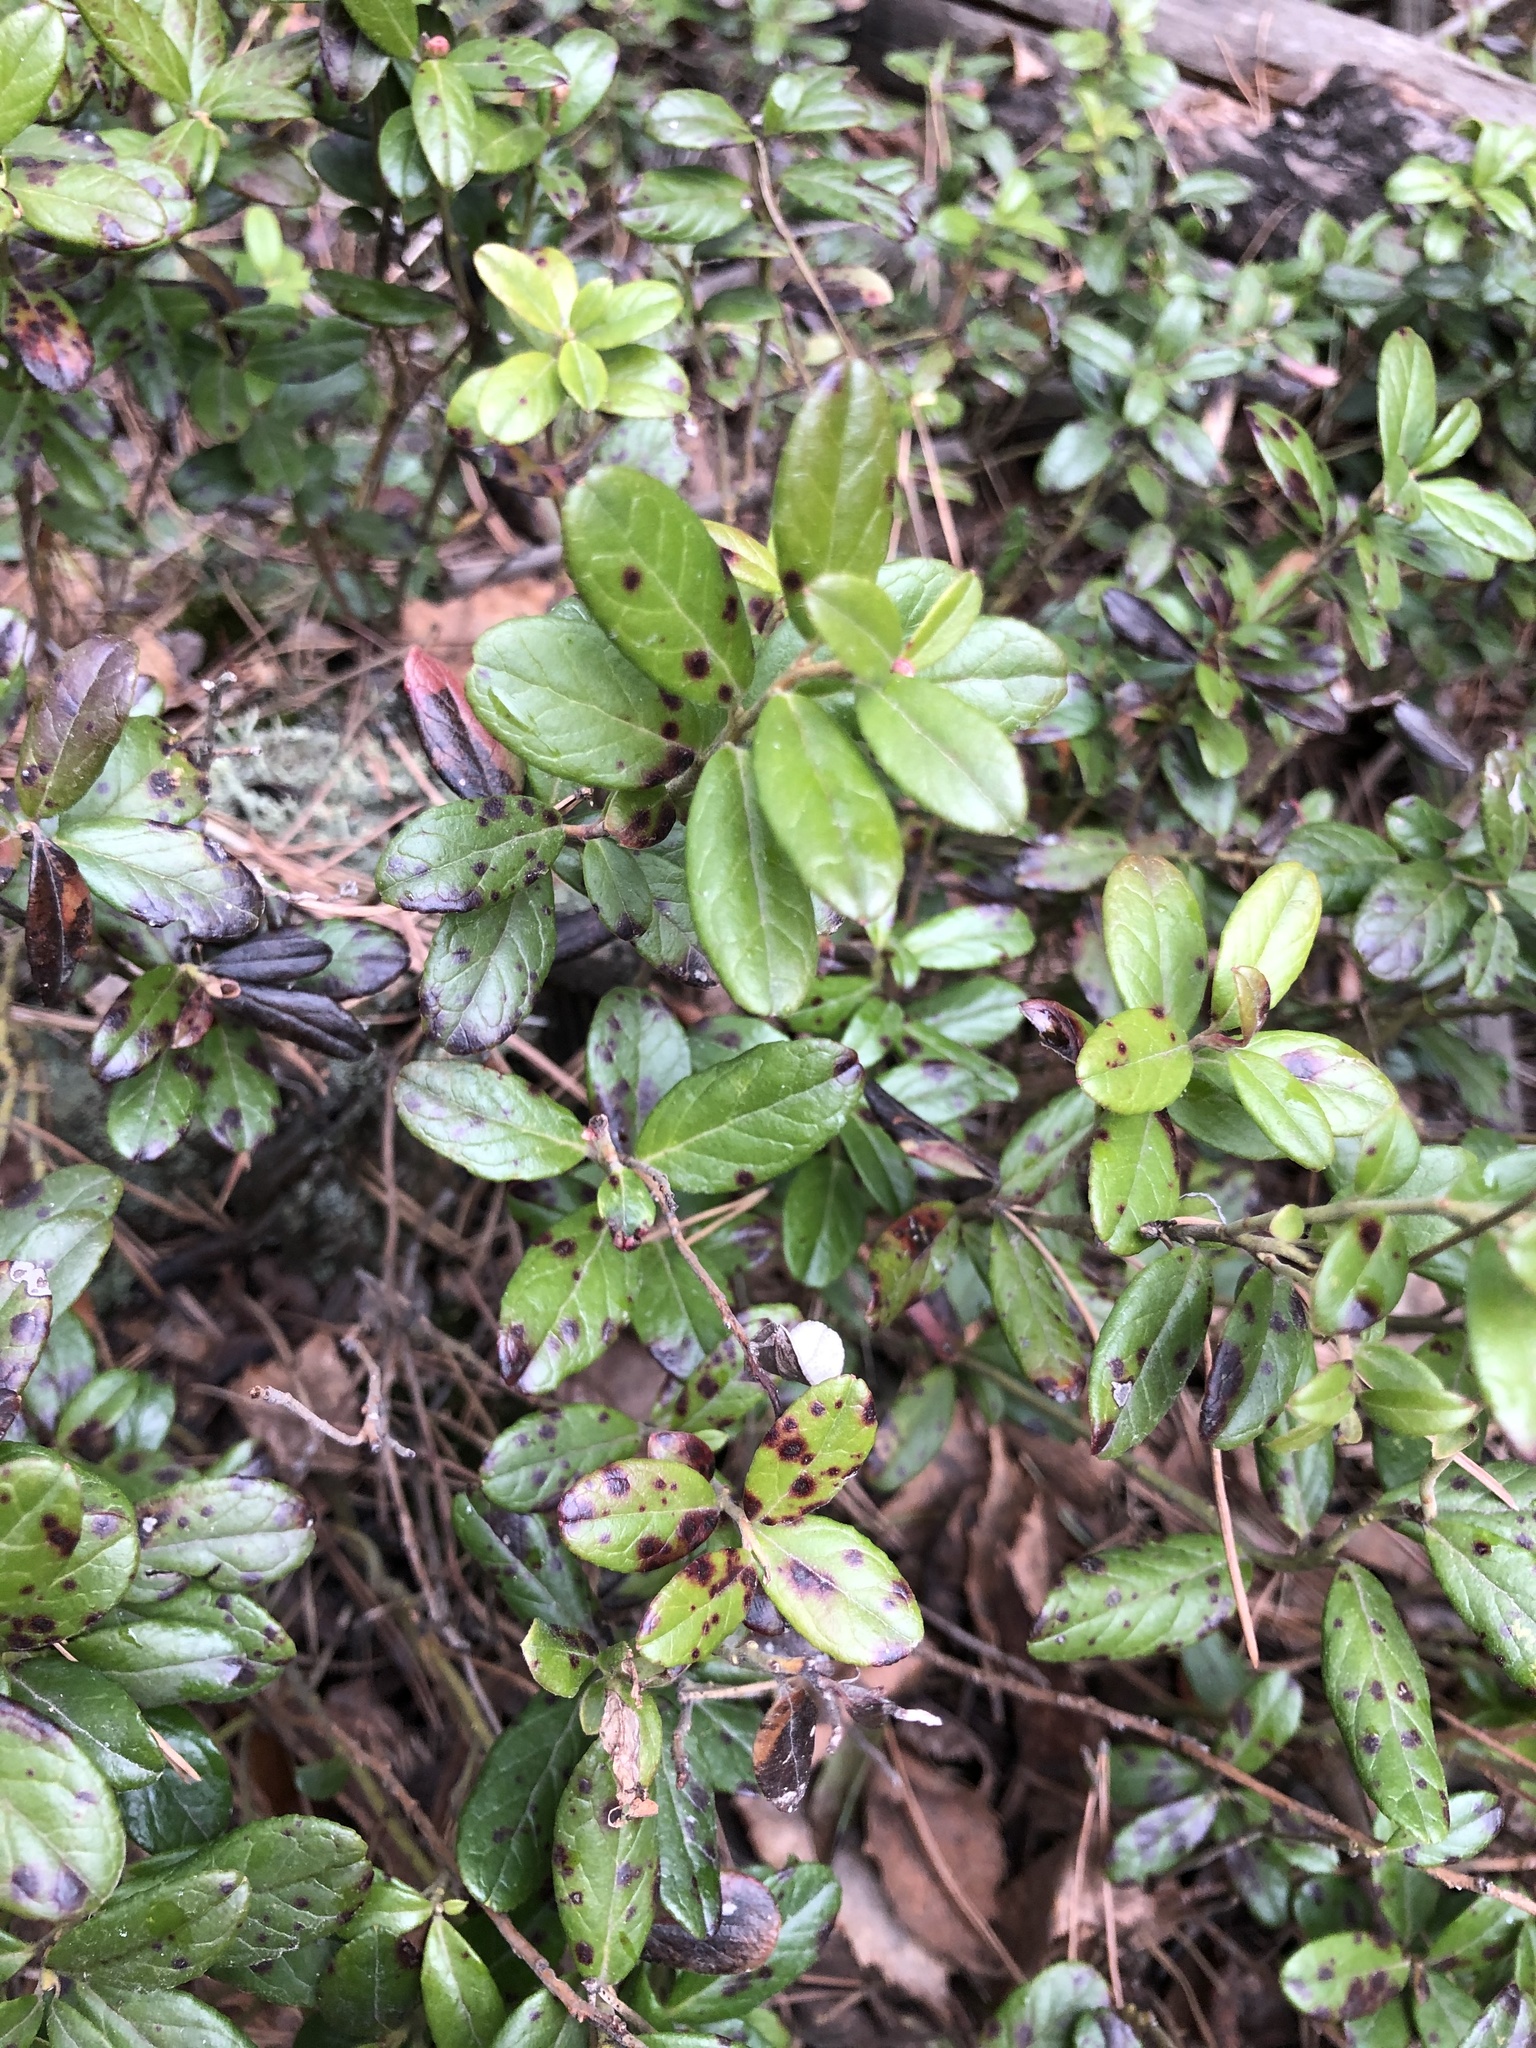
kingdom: Plantae
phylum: Tracheophyta
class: Magnoliopsida
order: Ericales
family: Ericaceae
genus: Vaccinium
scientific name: Vaccinium vitis-idaea
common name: Cowberry
